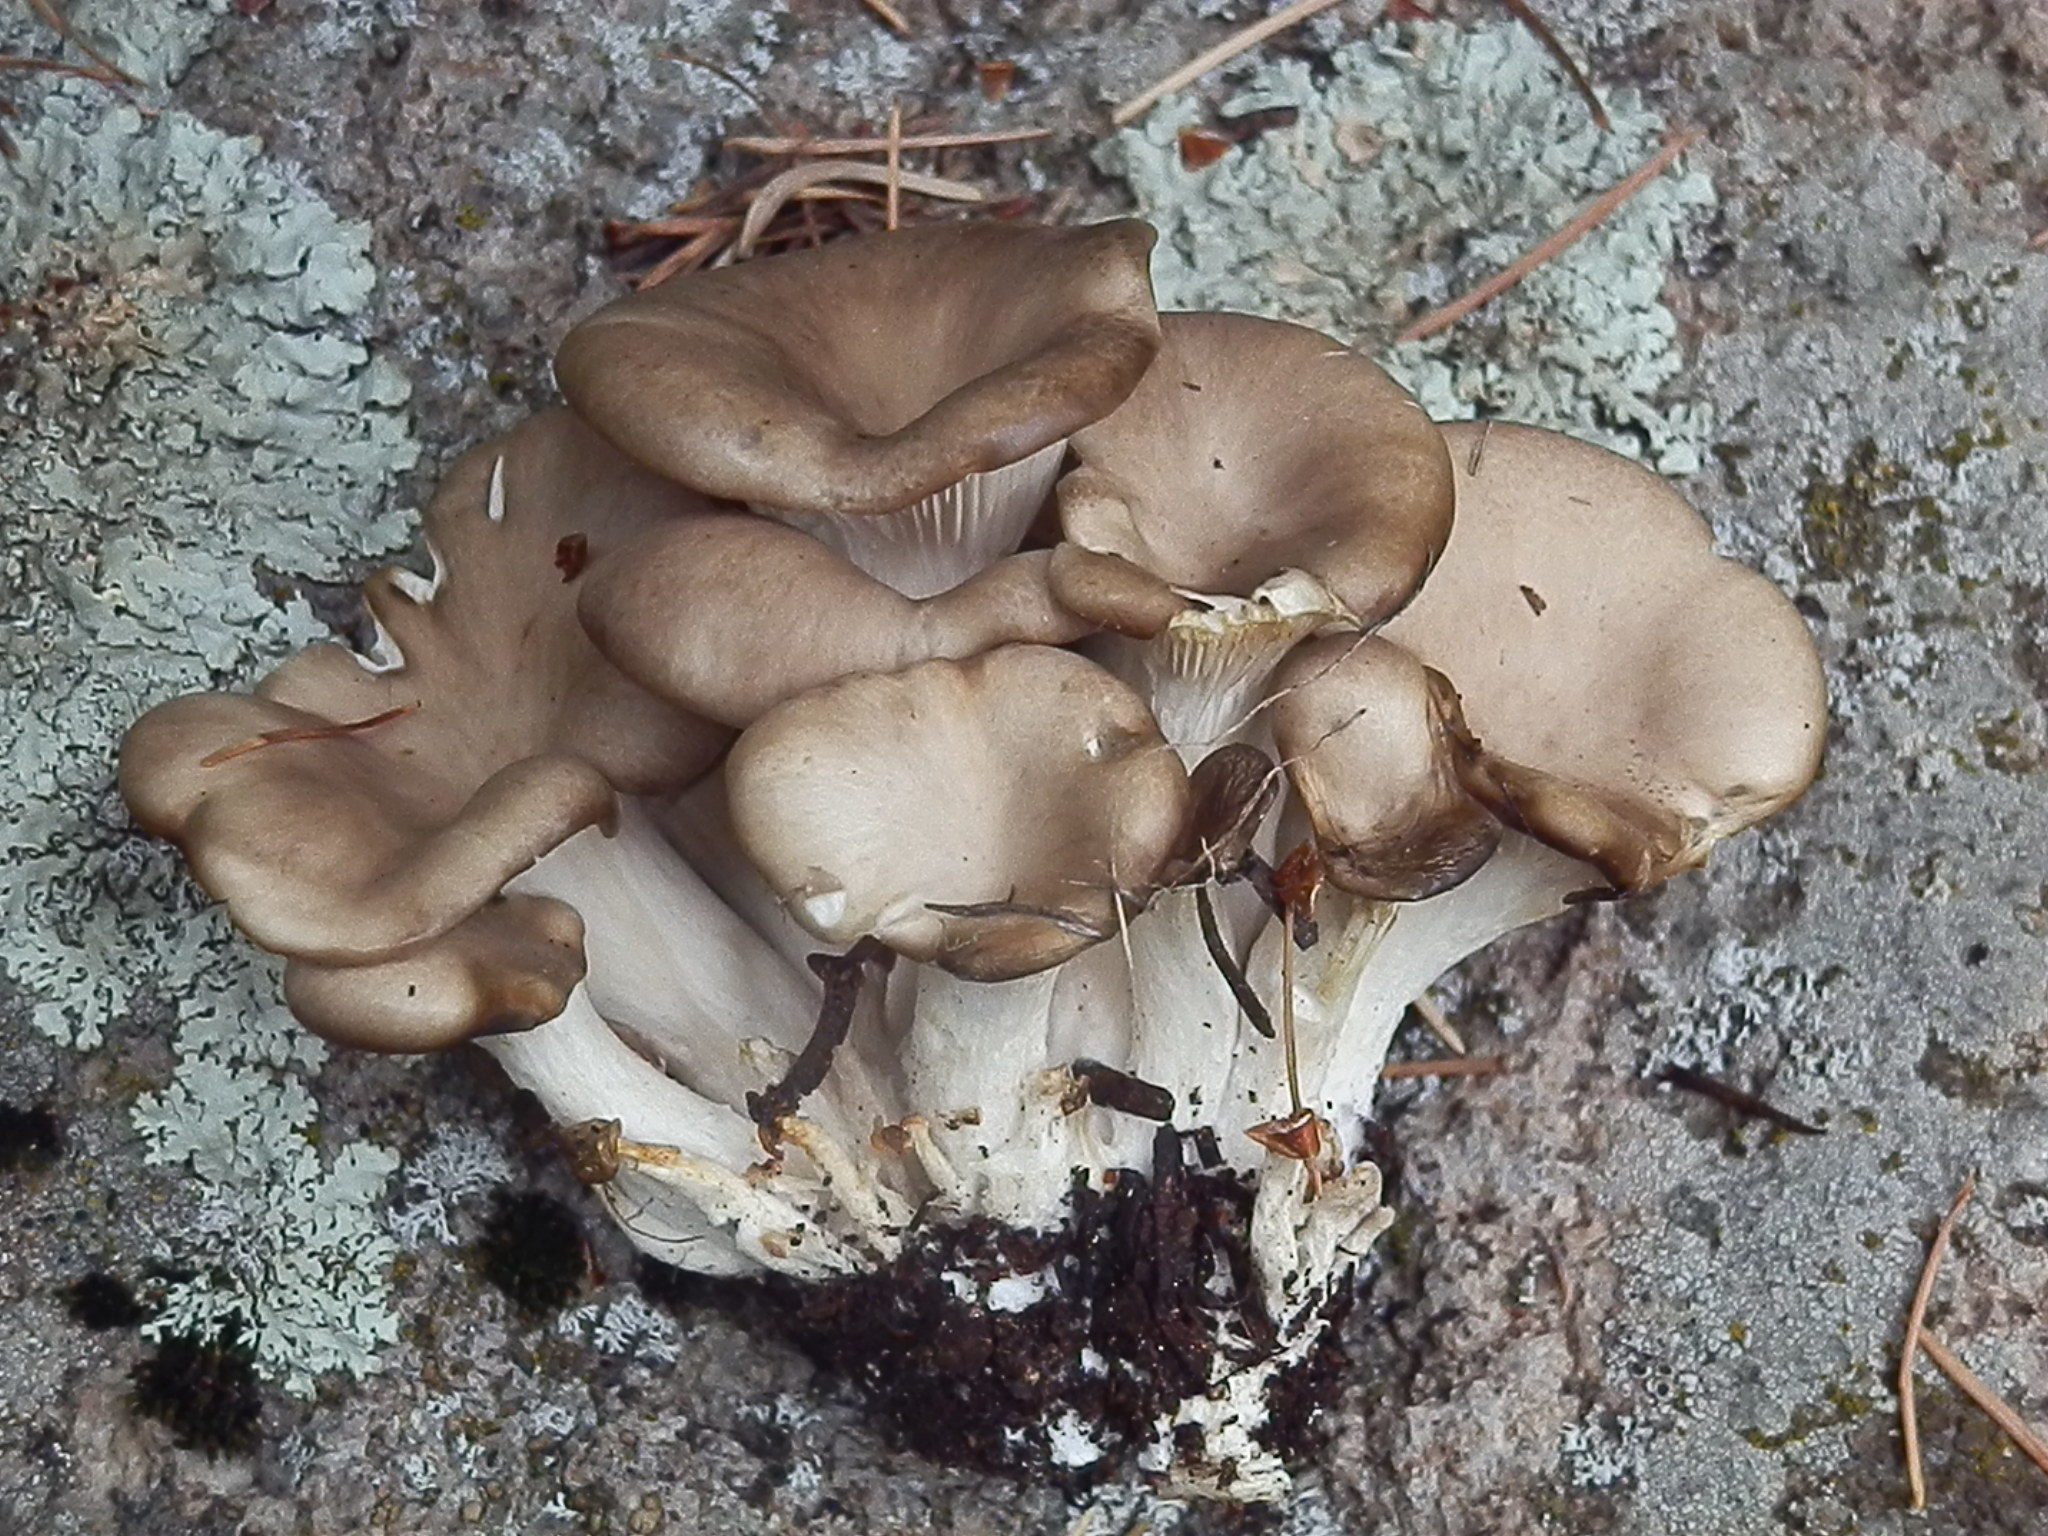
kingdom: Fungi
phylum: Basidiomycota
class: Agaricomycetes
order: Agaricales
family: Pleurotaceae
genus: Pleurotus
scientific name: Pleurotus pulmonarius
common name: Pale oyster
